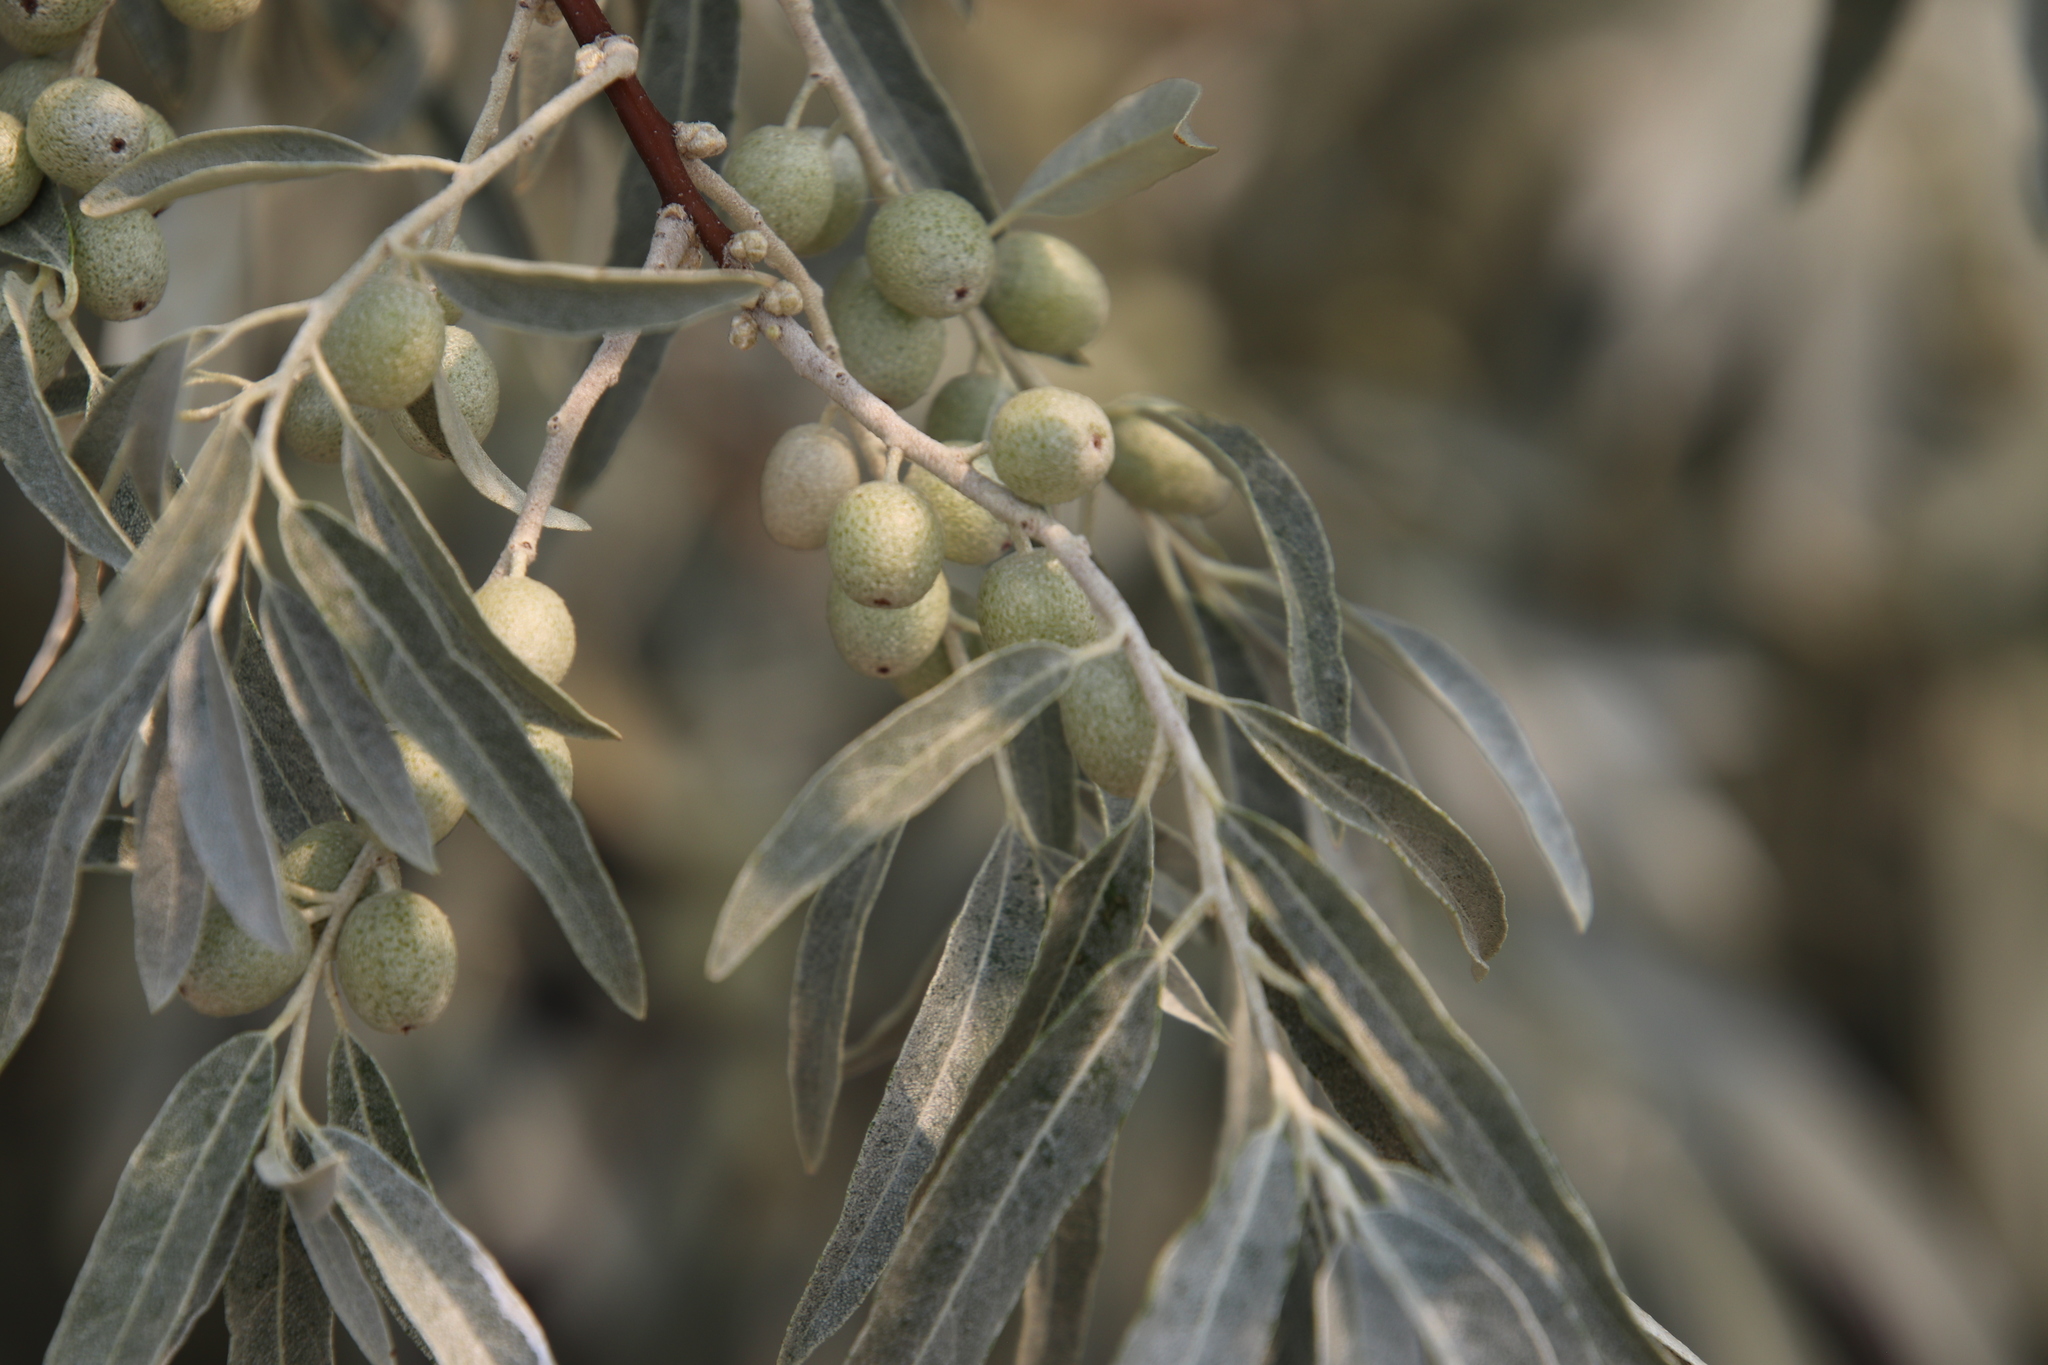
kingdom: Plantae
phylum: Tracheophyta
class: Magnoliopsida
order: Rosales
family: Elaeagnaceae
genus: Elaeagnus
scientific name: Elaeagnus angustifolia
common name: Russian olive
